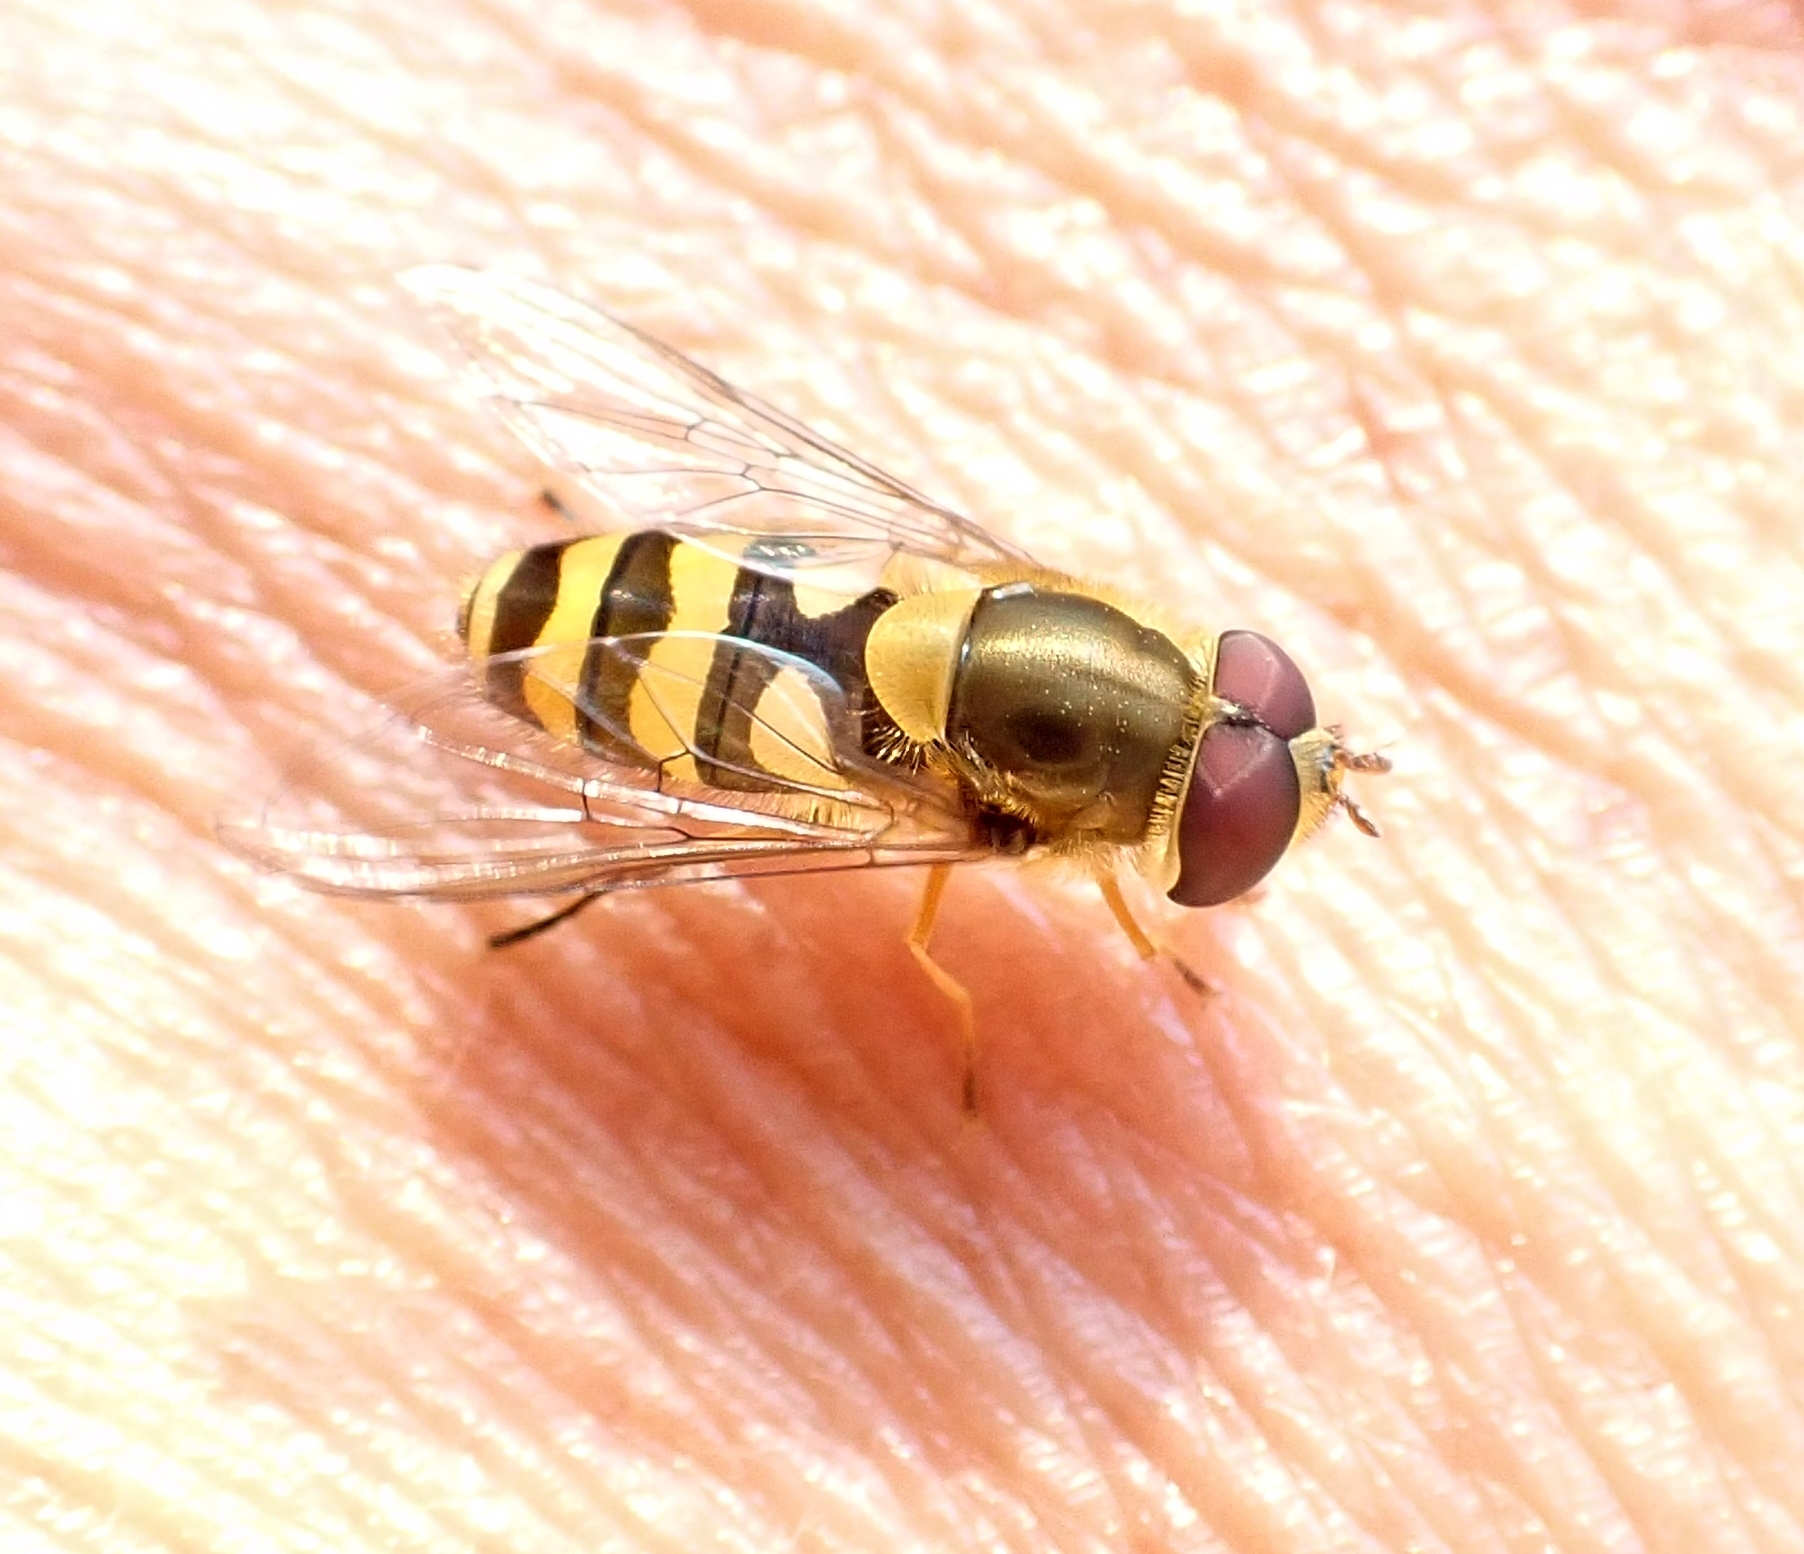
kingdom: Animalia
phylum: Arthropoda
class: Insecta
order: Diptera
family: Syrphidae
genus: Syrphus
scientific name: Syrphus
